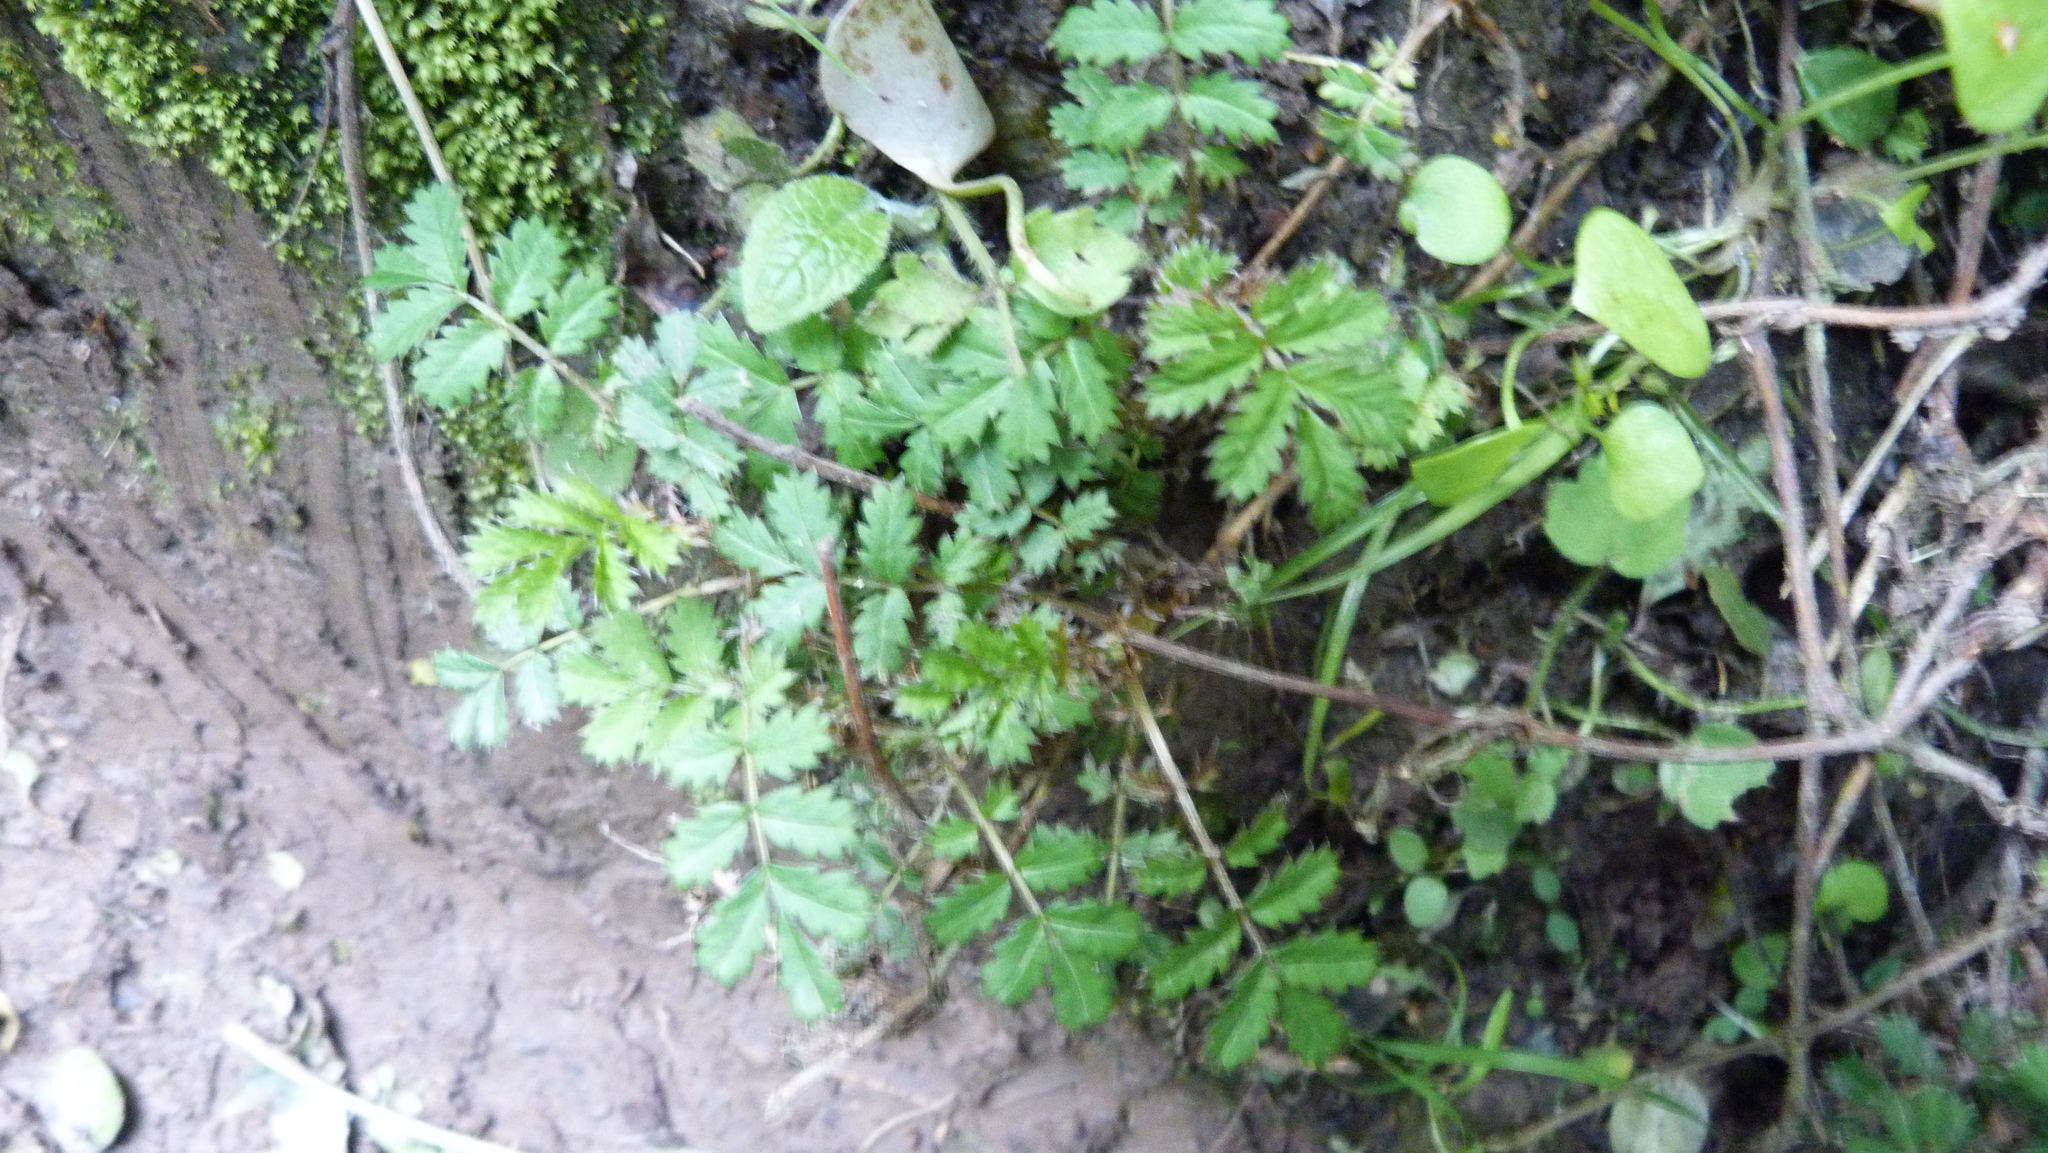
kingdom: Plantae
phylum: Tracheophyta
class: Magnoliopsida
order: Rosales
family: Rosaceae
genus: Acaena
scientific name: Acaena anserinifolia
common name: Bronze pirri-pirri-bur
